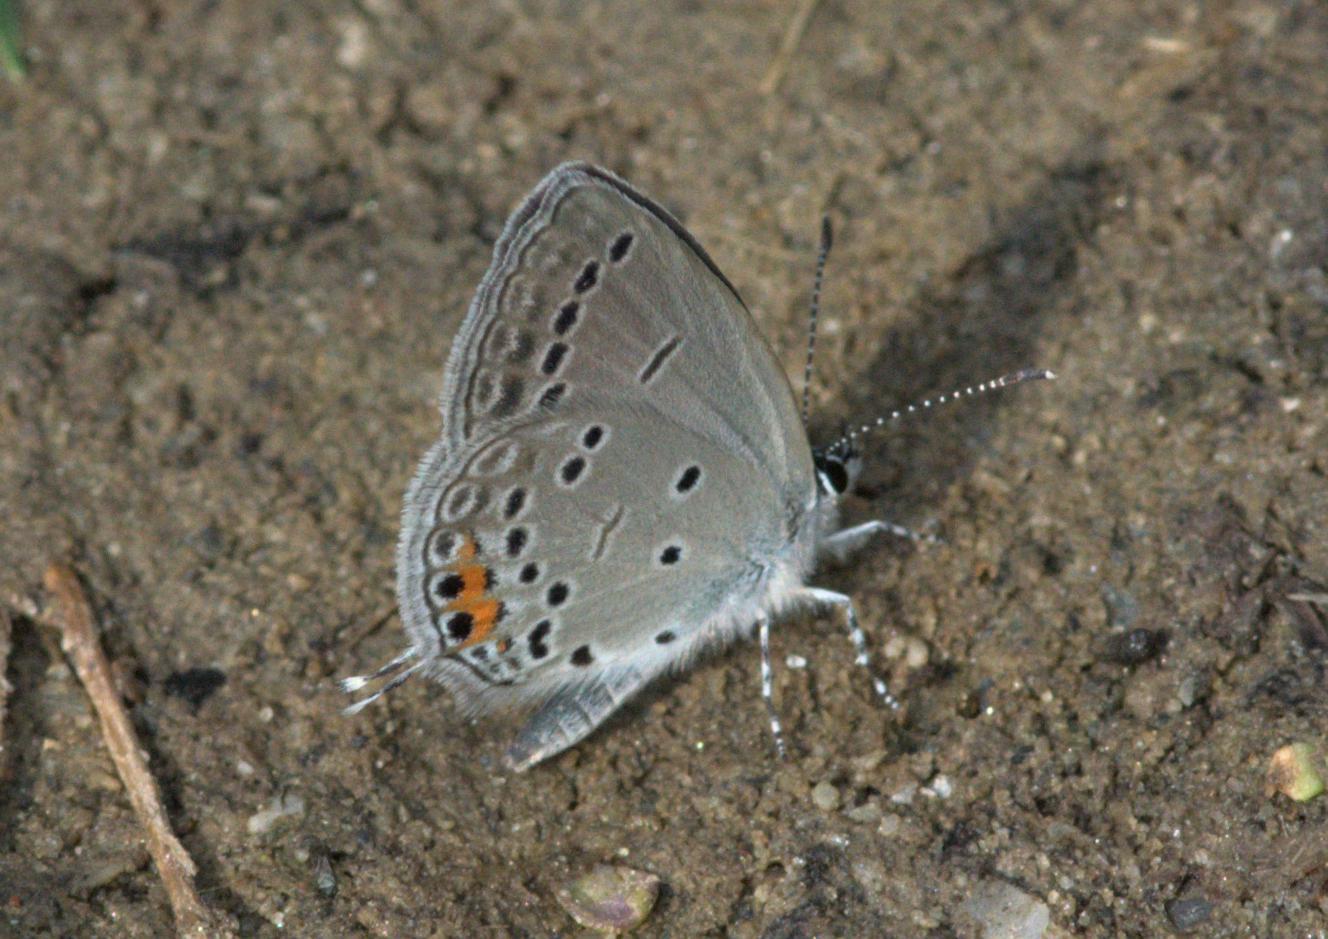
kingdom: Animalia
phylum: Arthropoda
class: Insecta
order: Lepidoptera
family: Lycaenidae
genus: Elkalyce
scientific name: Elkalyce argiades
